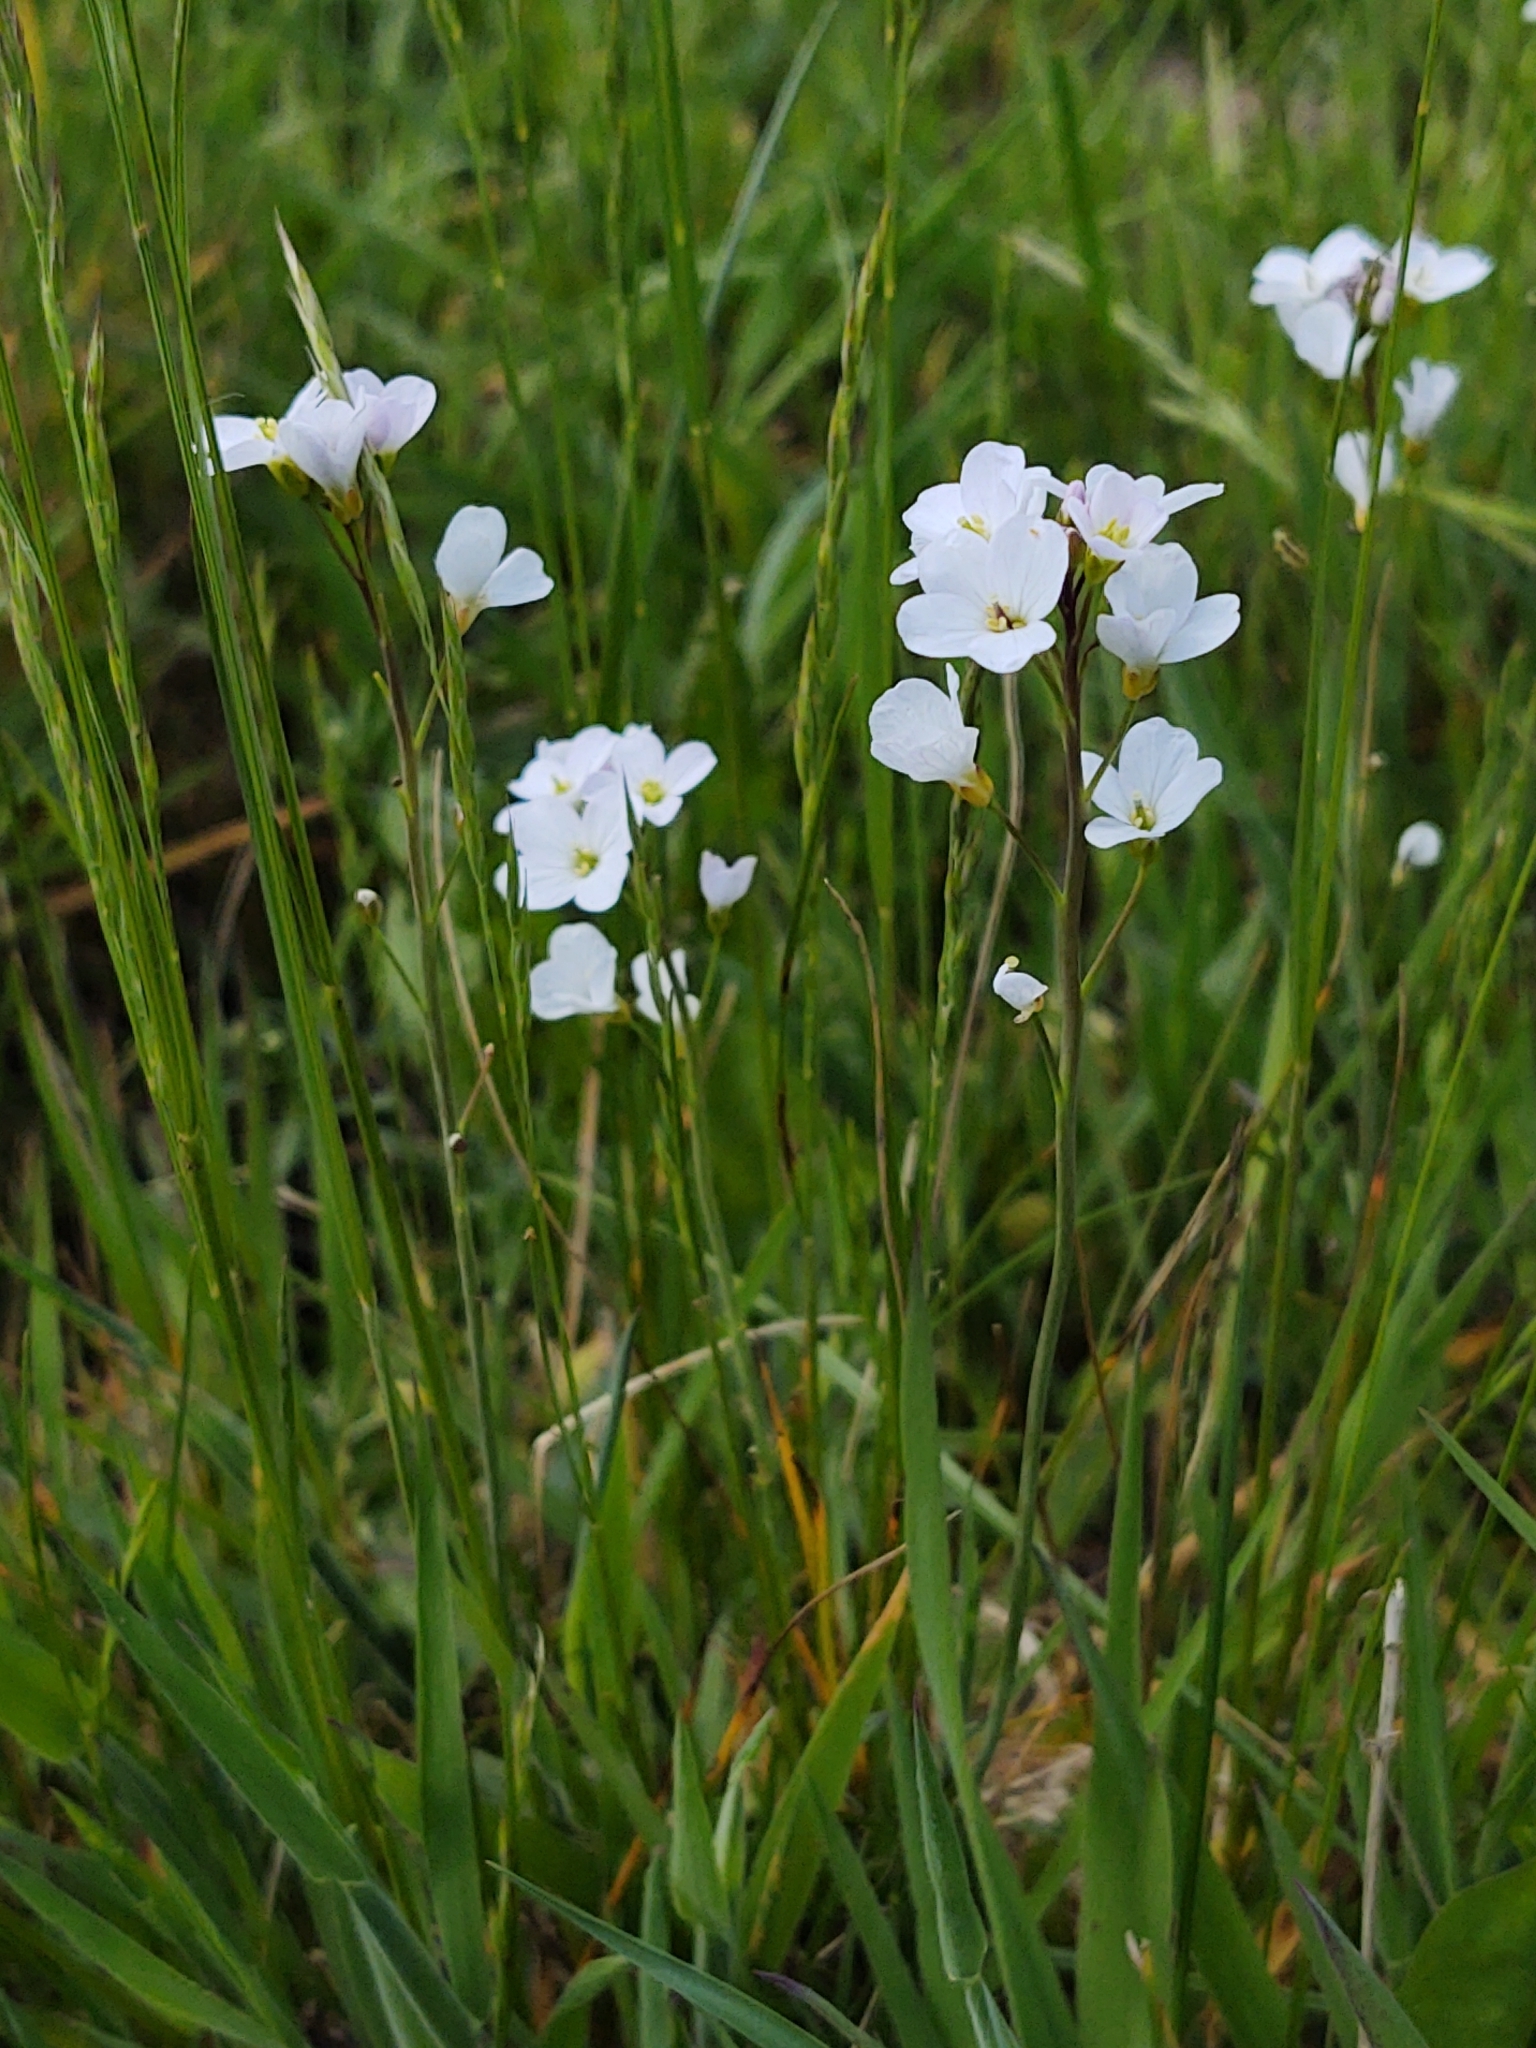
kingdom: Plantae
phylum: Tracheophyta
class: Magnoliopsida
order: Brassicales
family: Brassicaceae
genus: Cardamine
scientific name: Cardamine pratensis
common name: Cuckoo flower
